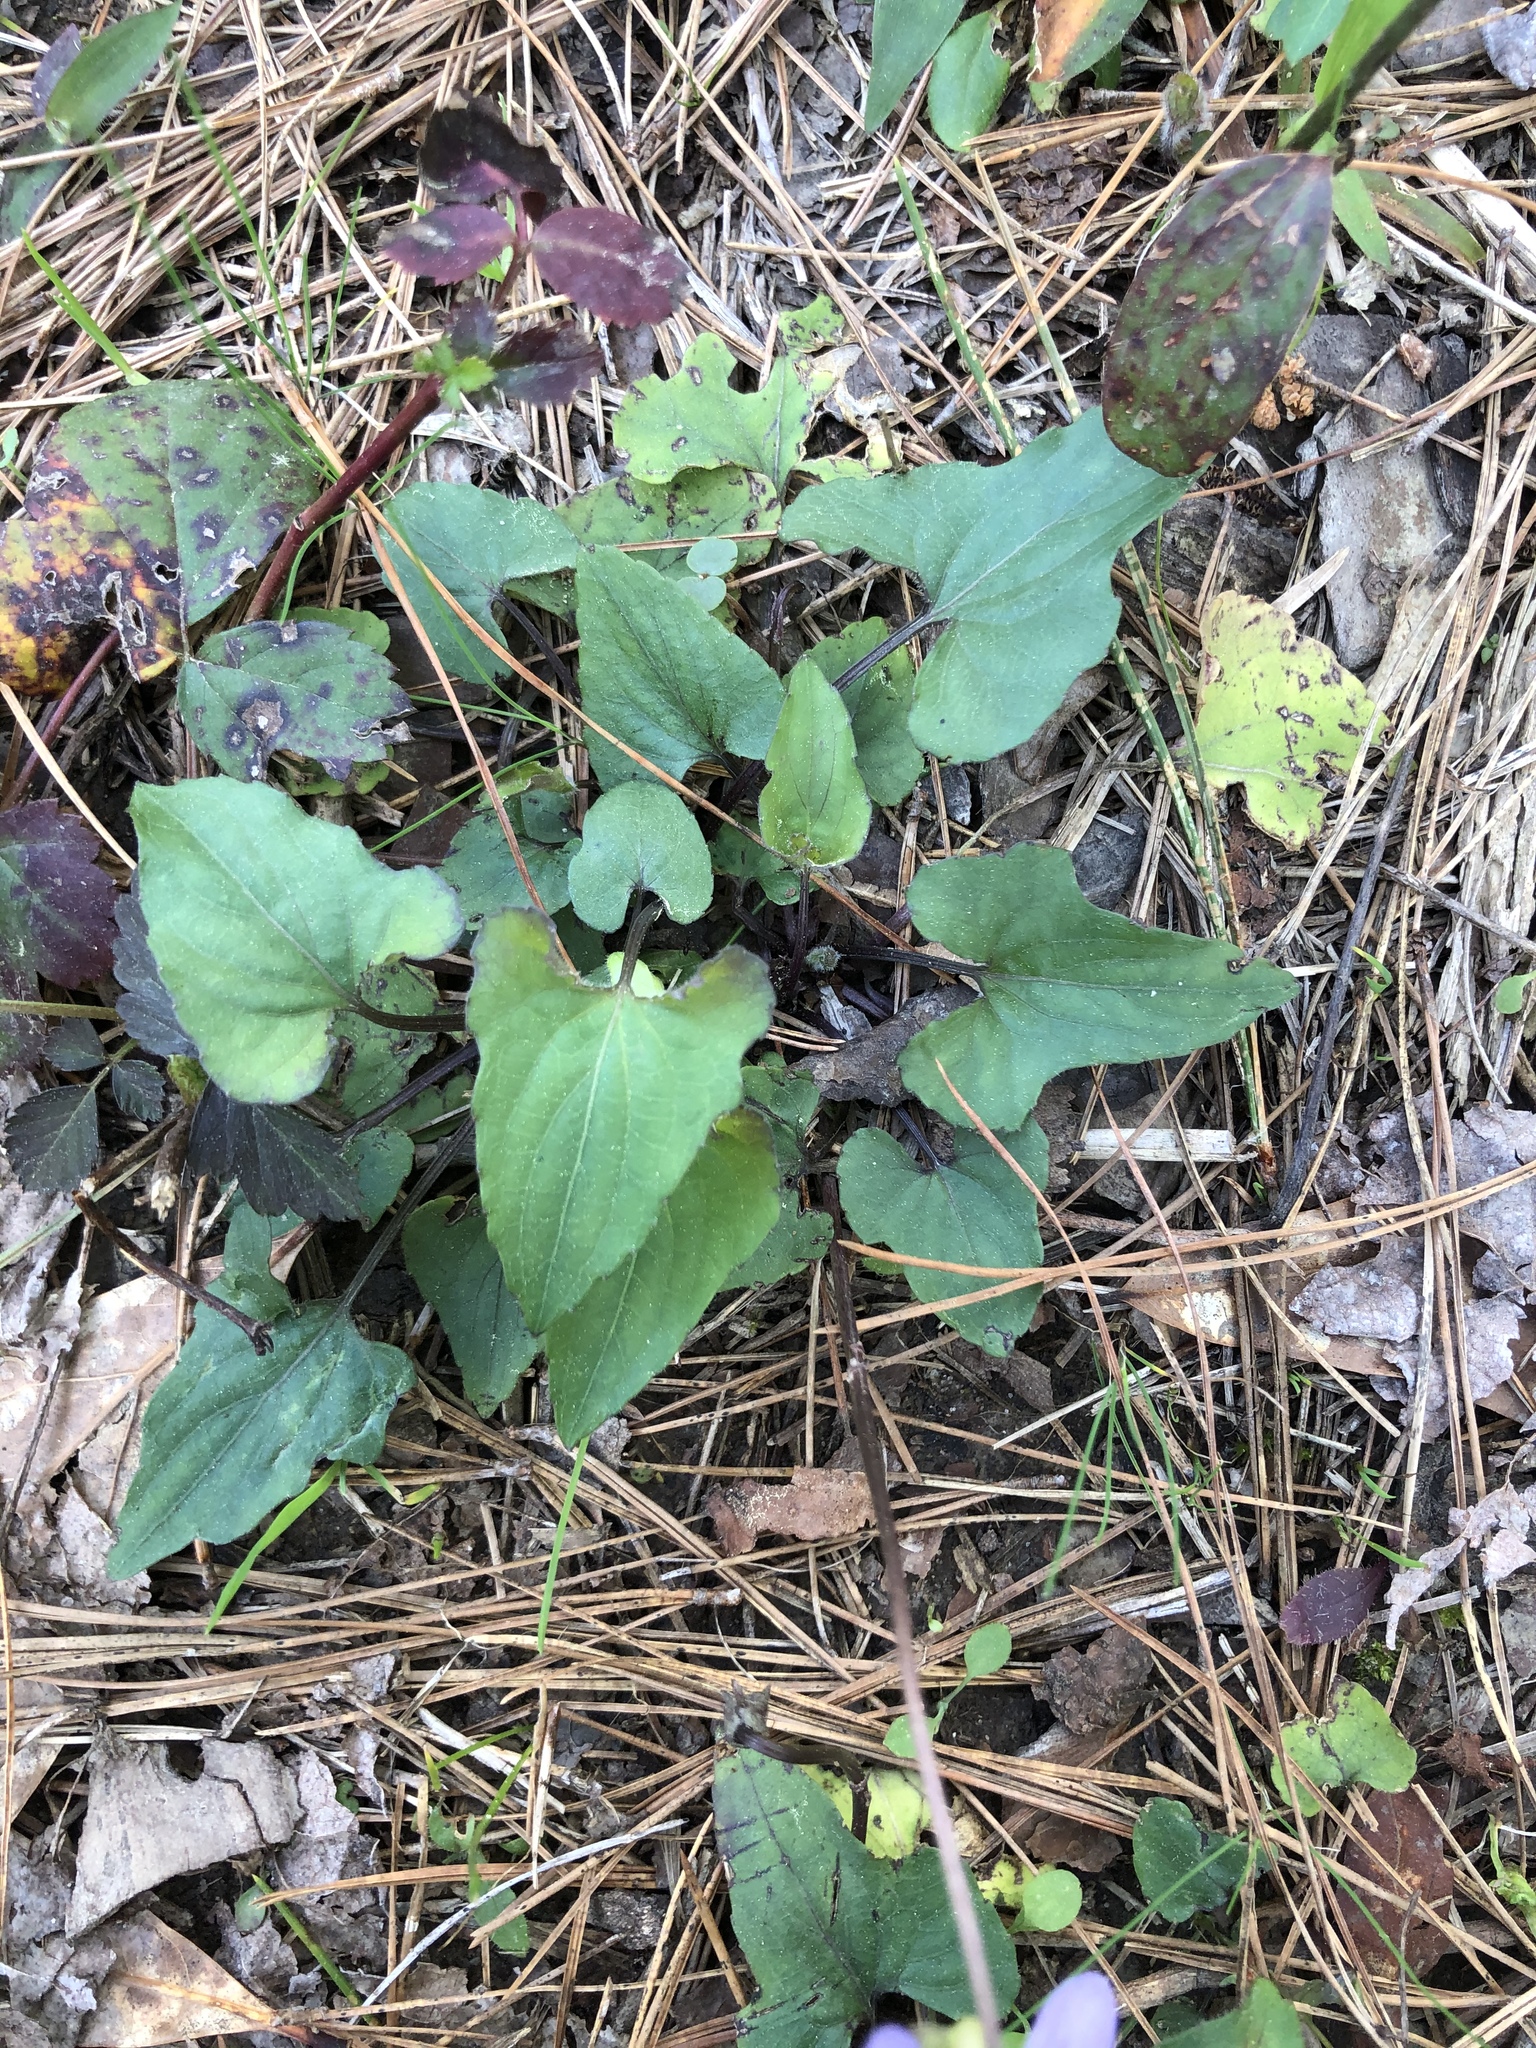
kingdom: Plantae
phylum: Tracheophyta
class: Magnoliopsida
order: Malpighiales
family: Violaceae
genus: Viola
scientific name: Viola palmata
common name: Early blue violet
